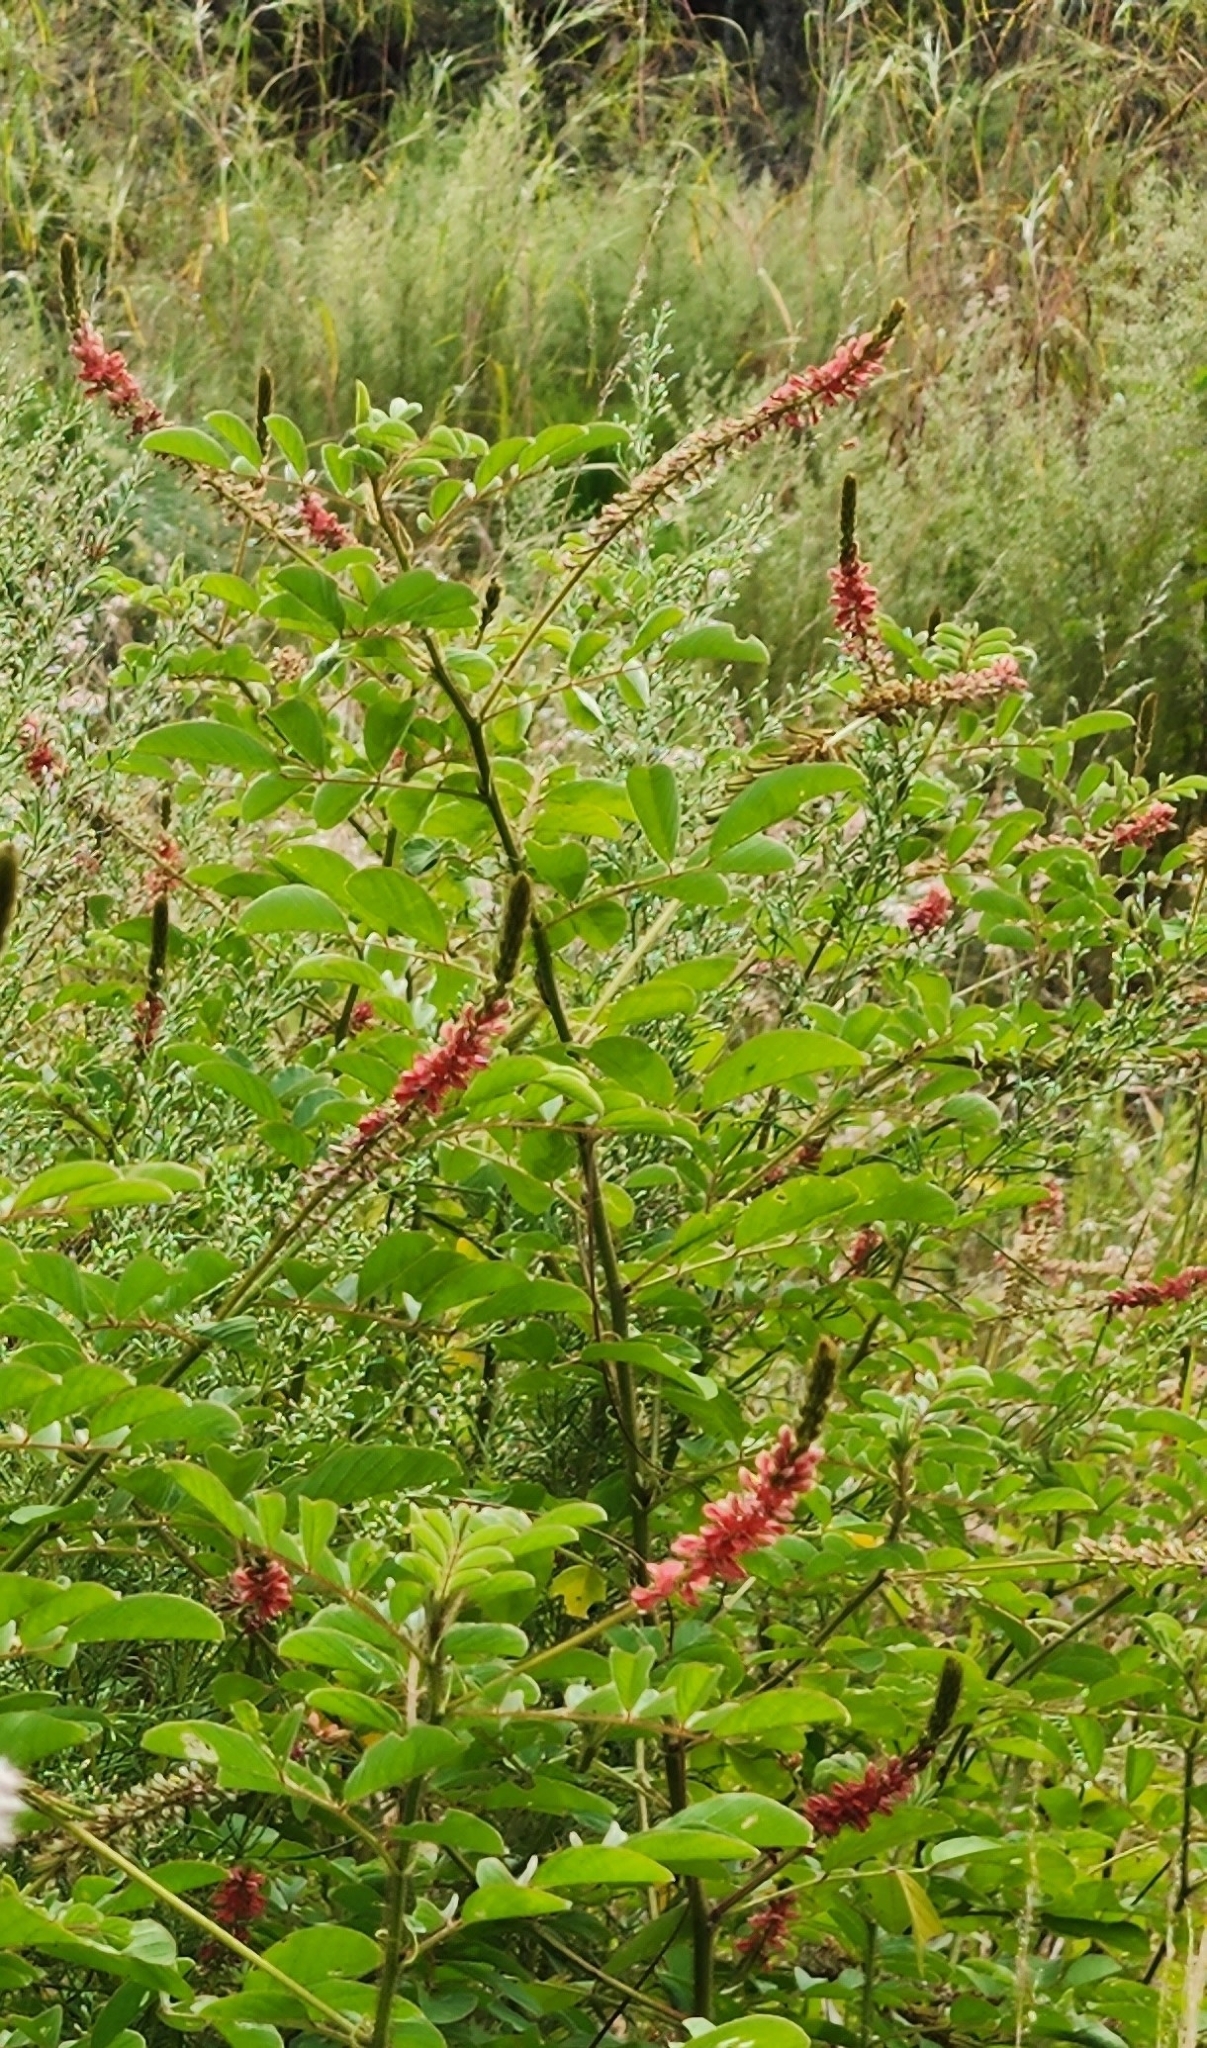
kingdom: Plantae
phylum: Tracheophyta
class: Magnoliopsida
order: Fabales
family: Fabaceae
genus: Indigofera
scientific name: Indigofera hirsuta
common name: Hairy indigo
